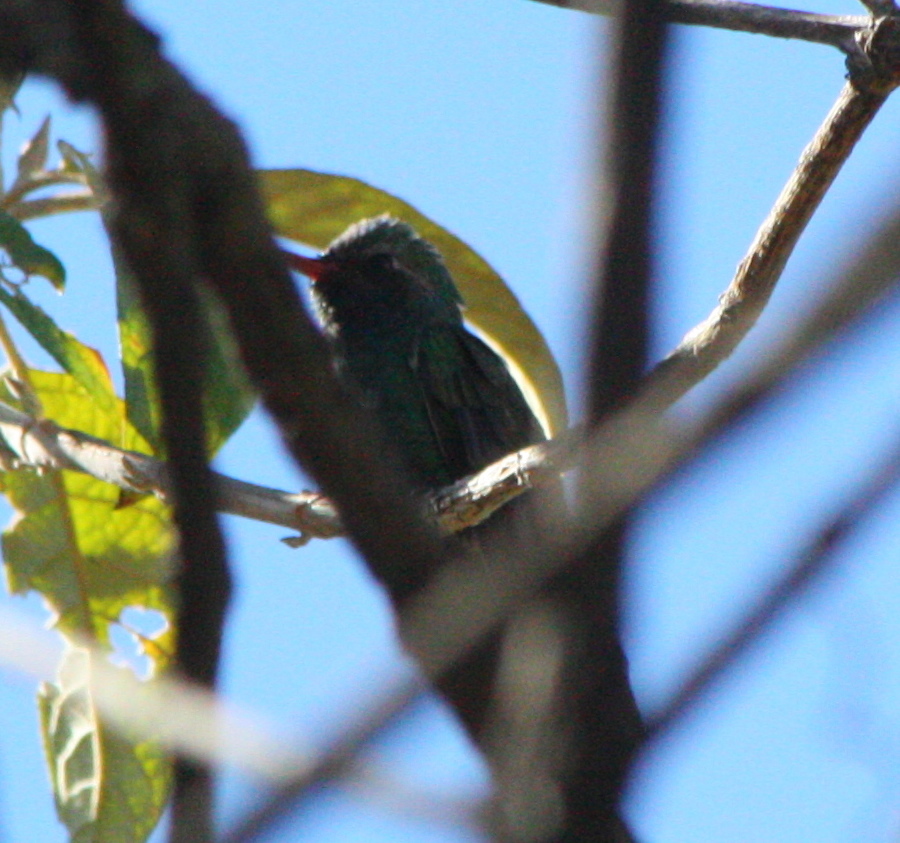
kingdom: Animalia
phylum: Chordata
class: Aves
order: Apodiformes
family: Trochilidae
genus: Cynanthus
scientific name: Cynanthus latirostris
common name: Broad-billed hummingbird
